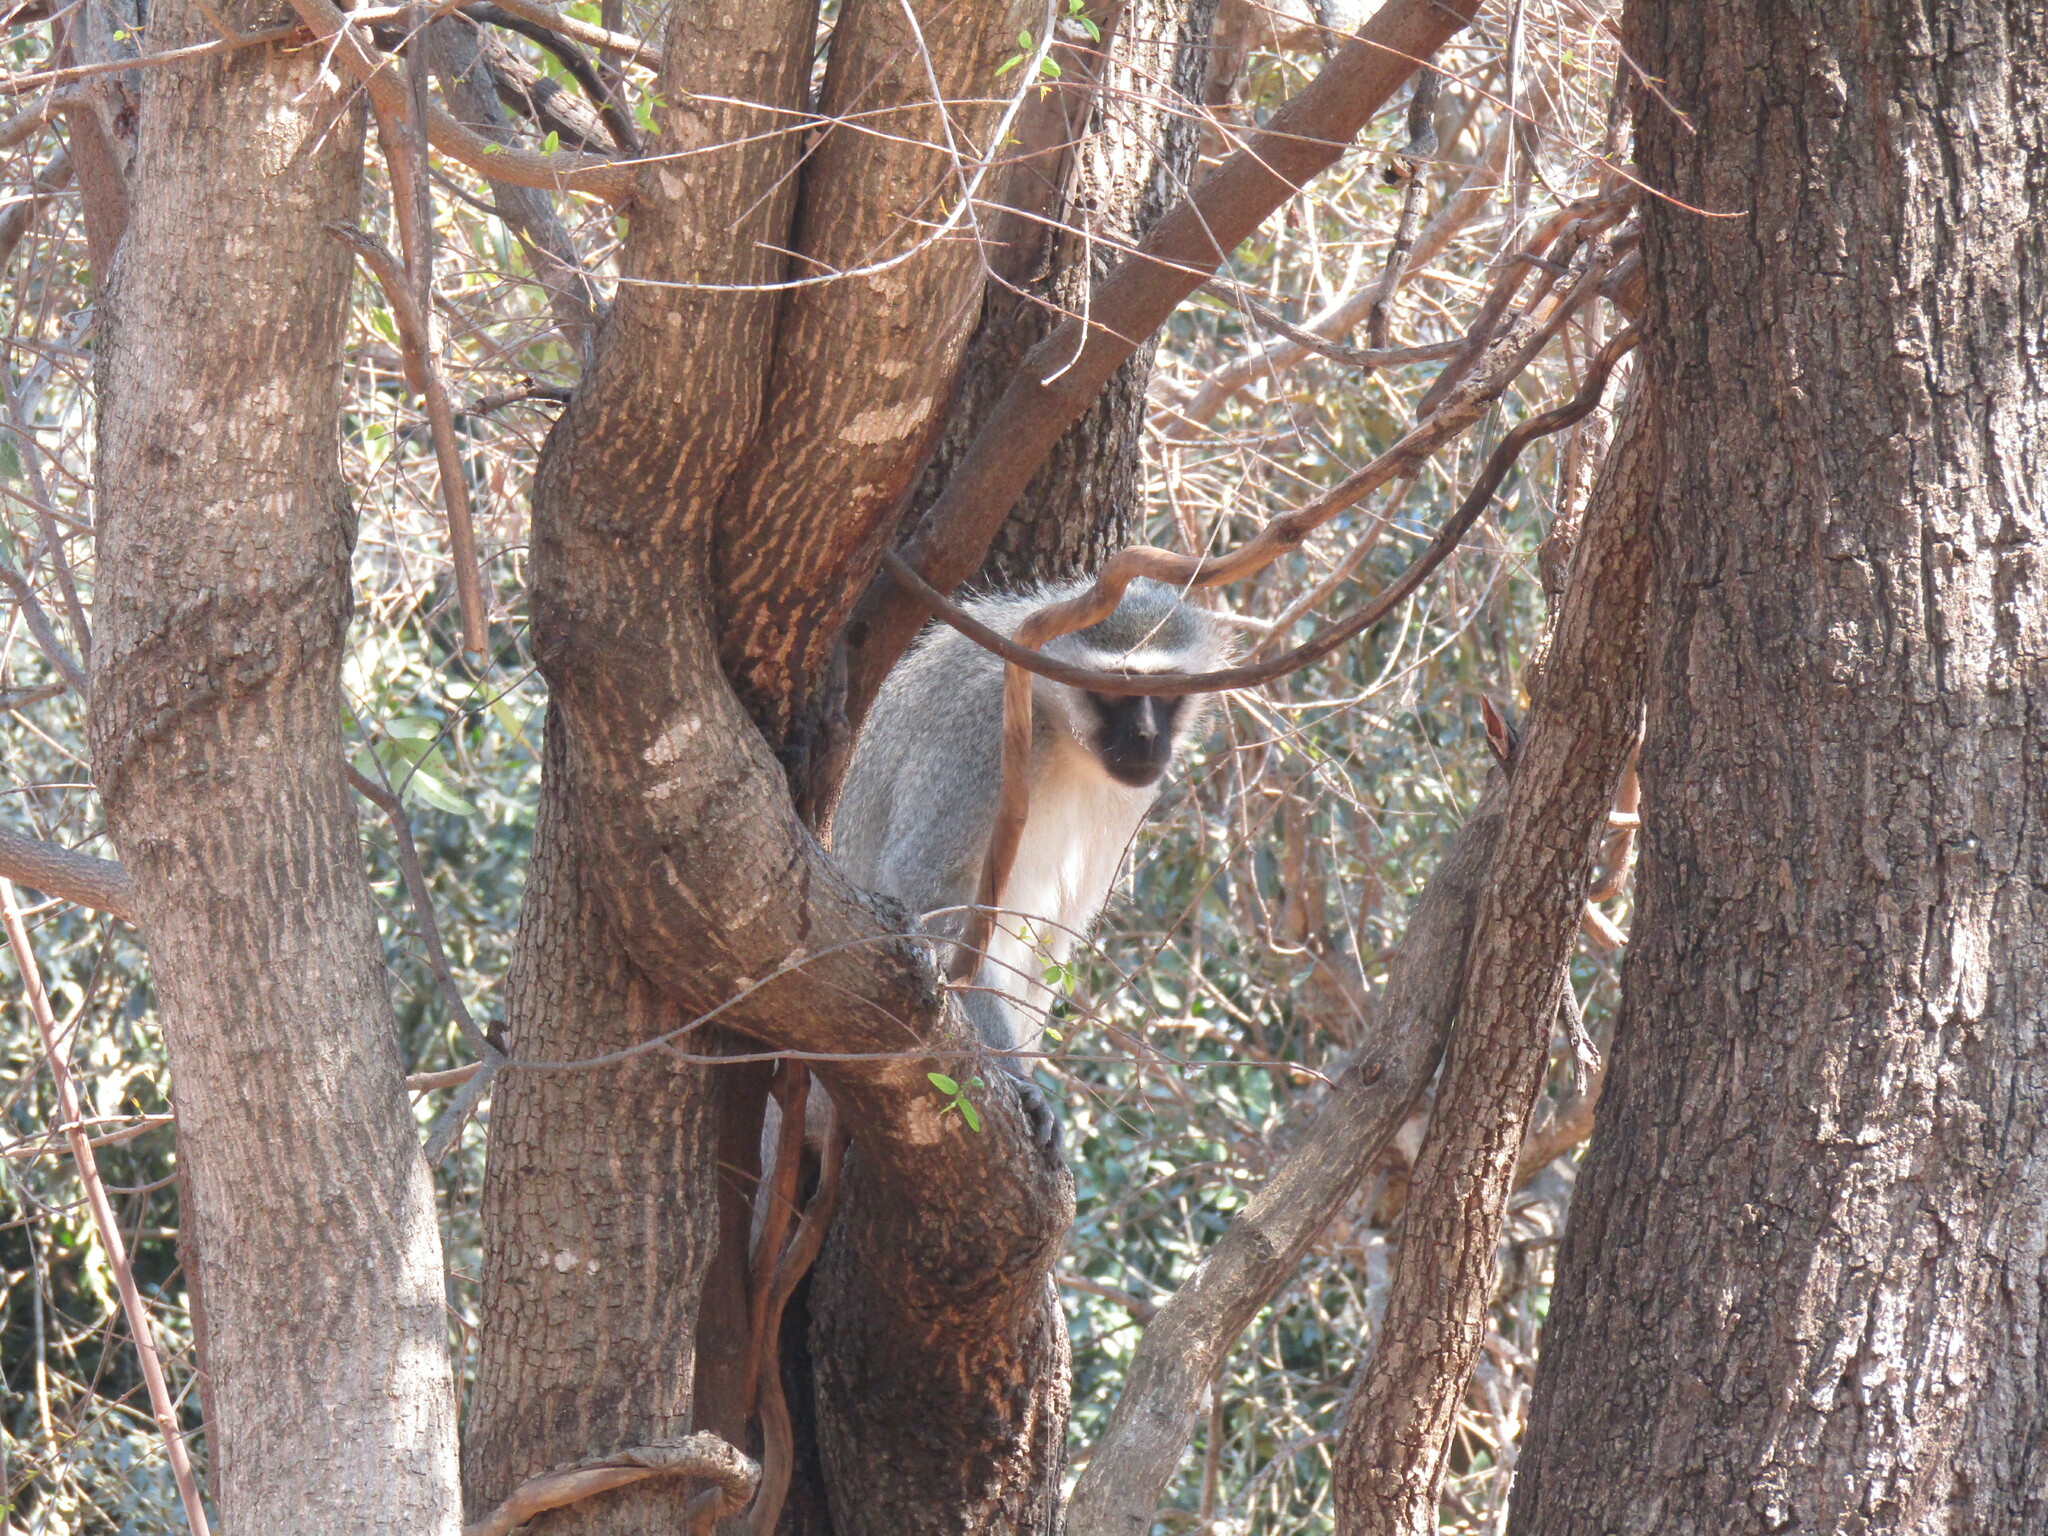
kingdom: Animalia
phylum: Chordata
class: Mammalia
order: Primates
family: Cercopithecidae
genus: Chlorocebus
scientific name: Chlorocebus pygerythrus
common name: Vervet monkey
